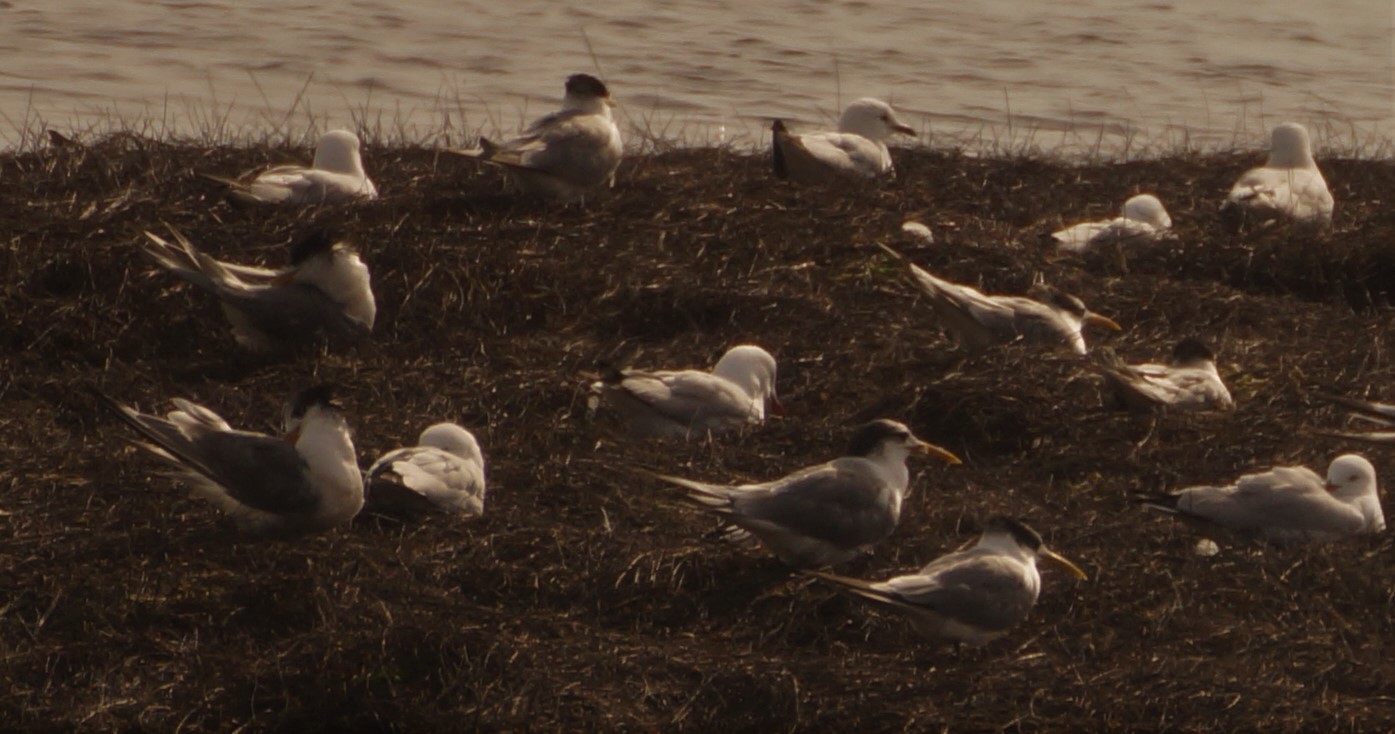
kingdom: Animalia
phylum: Chordata
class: Aves
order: Charadriiformes
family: Laridae
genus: Thalasseus
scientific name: Thalasseus bergii
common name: Greater crested tern
